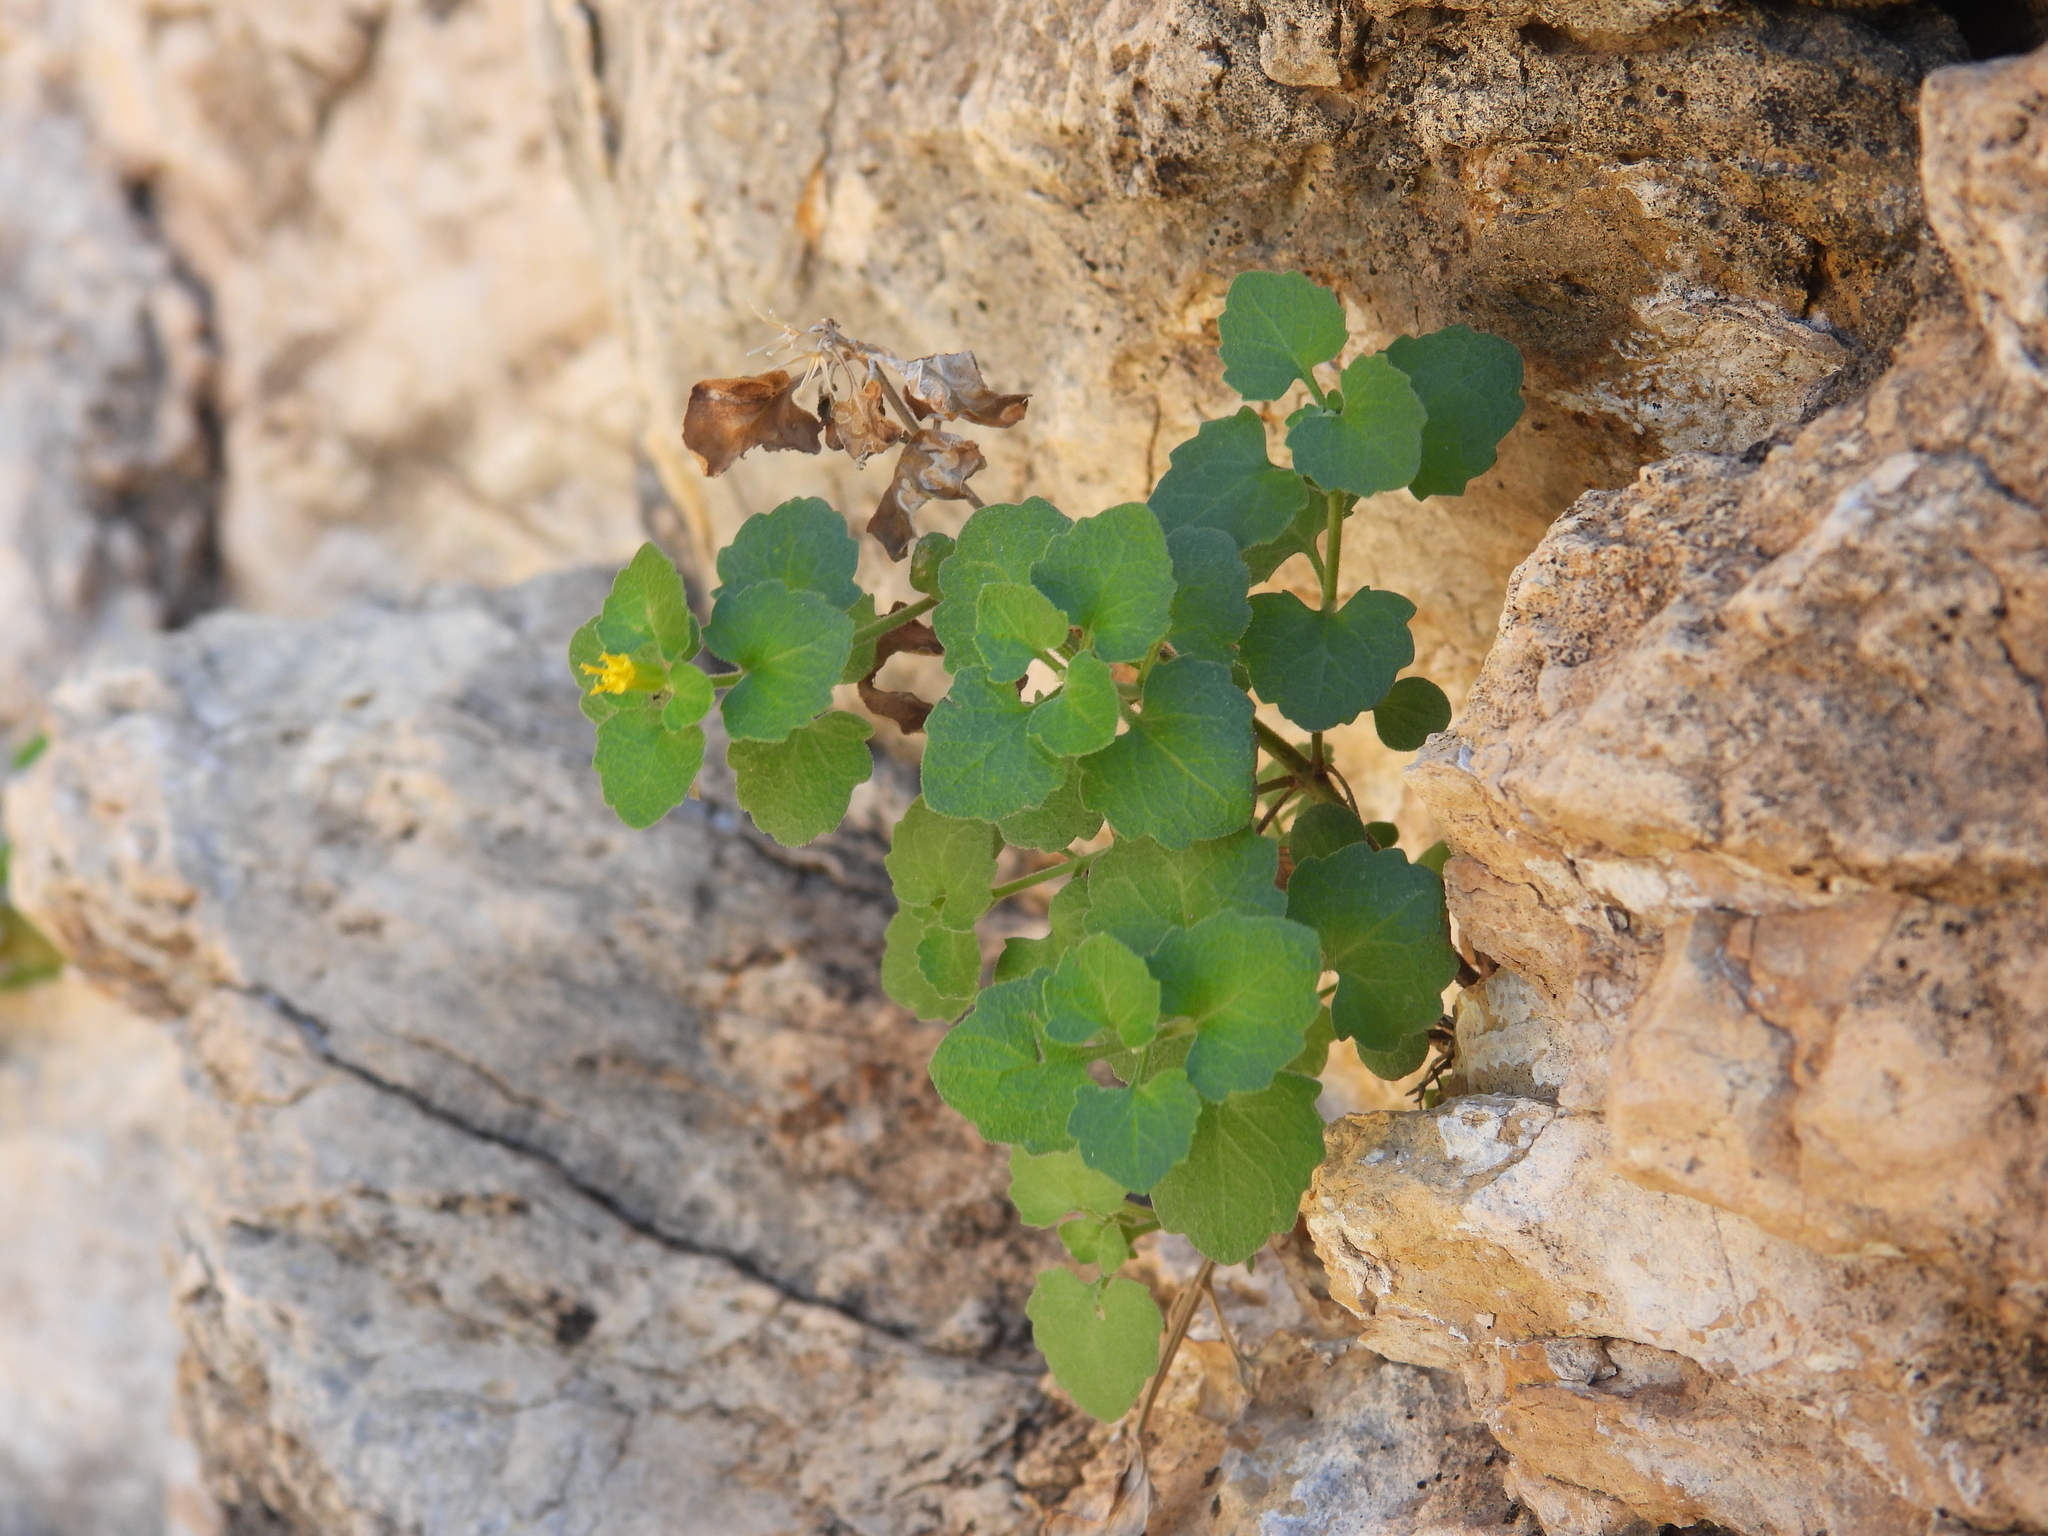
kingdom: Plantae
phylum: Tracheophyta
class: Magnoliopsida
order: Asterales
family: Asteraceae
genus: Laphamia
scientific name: Laphamia quinqueflora
